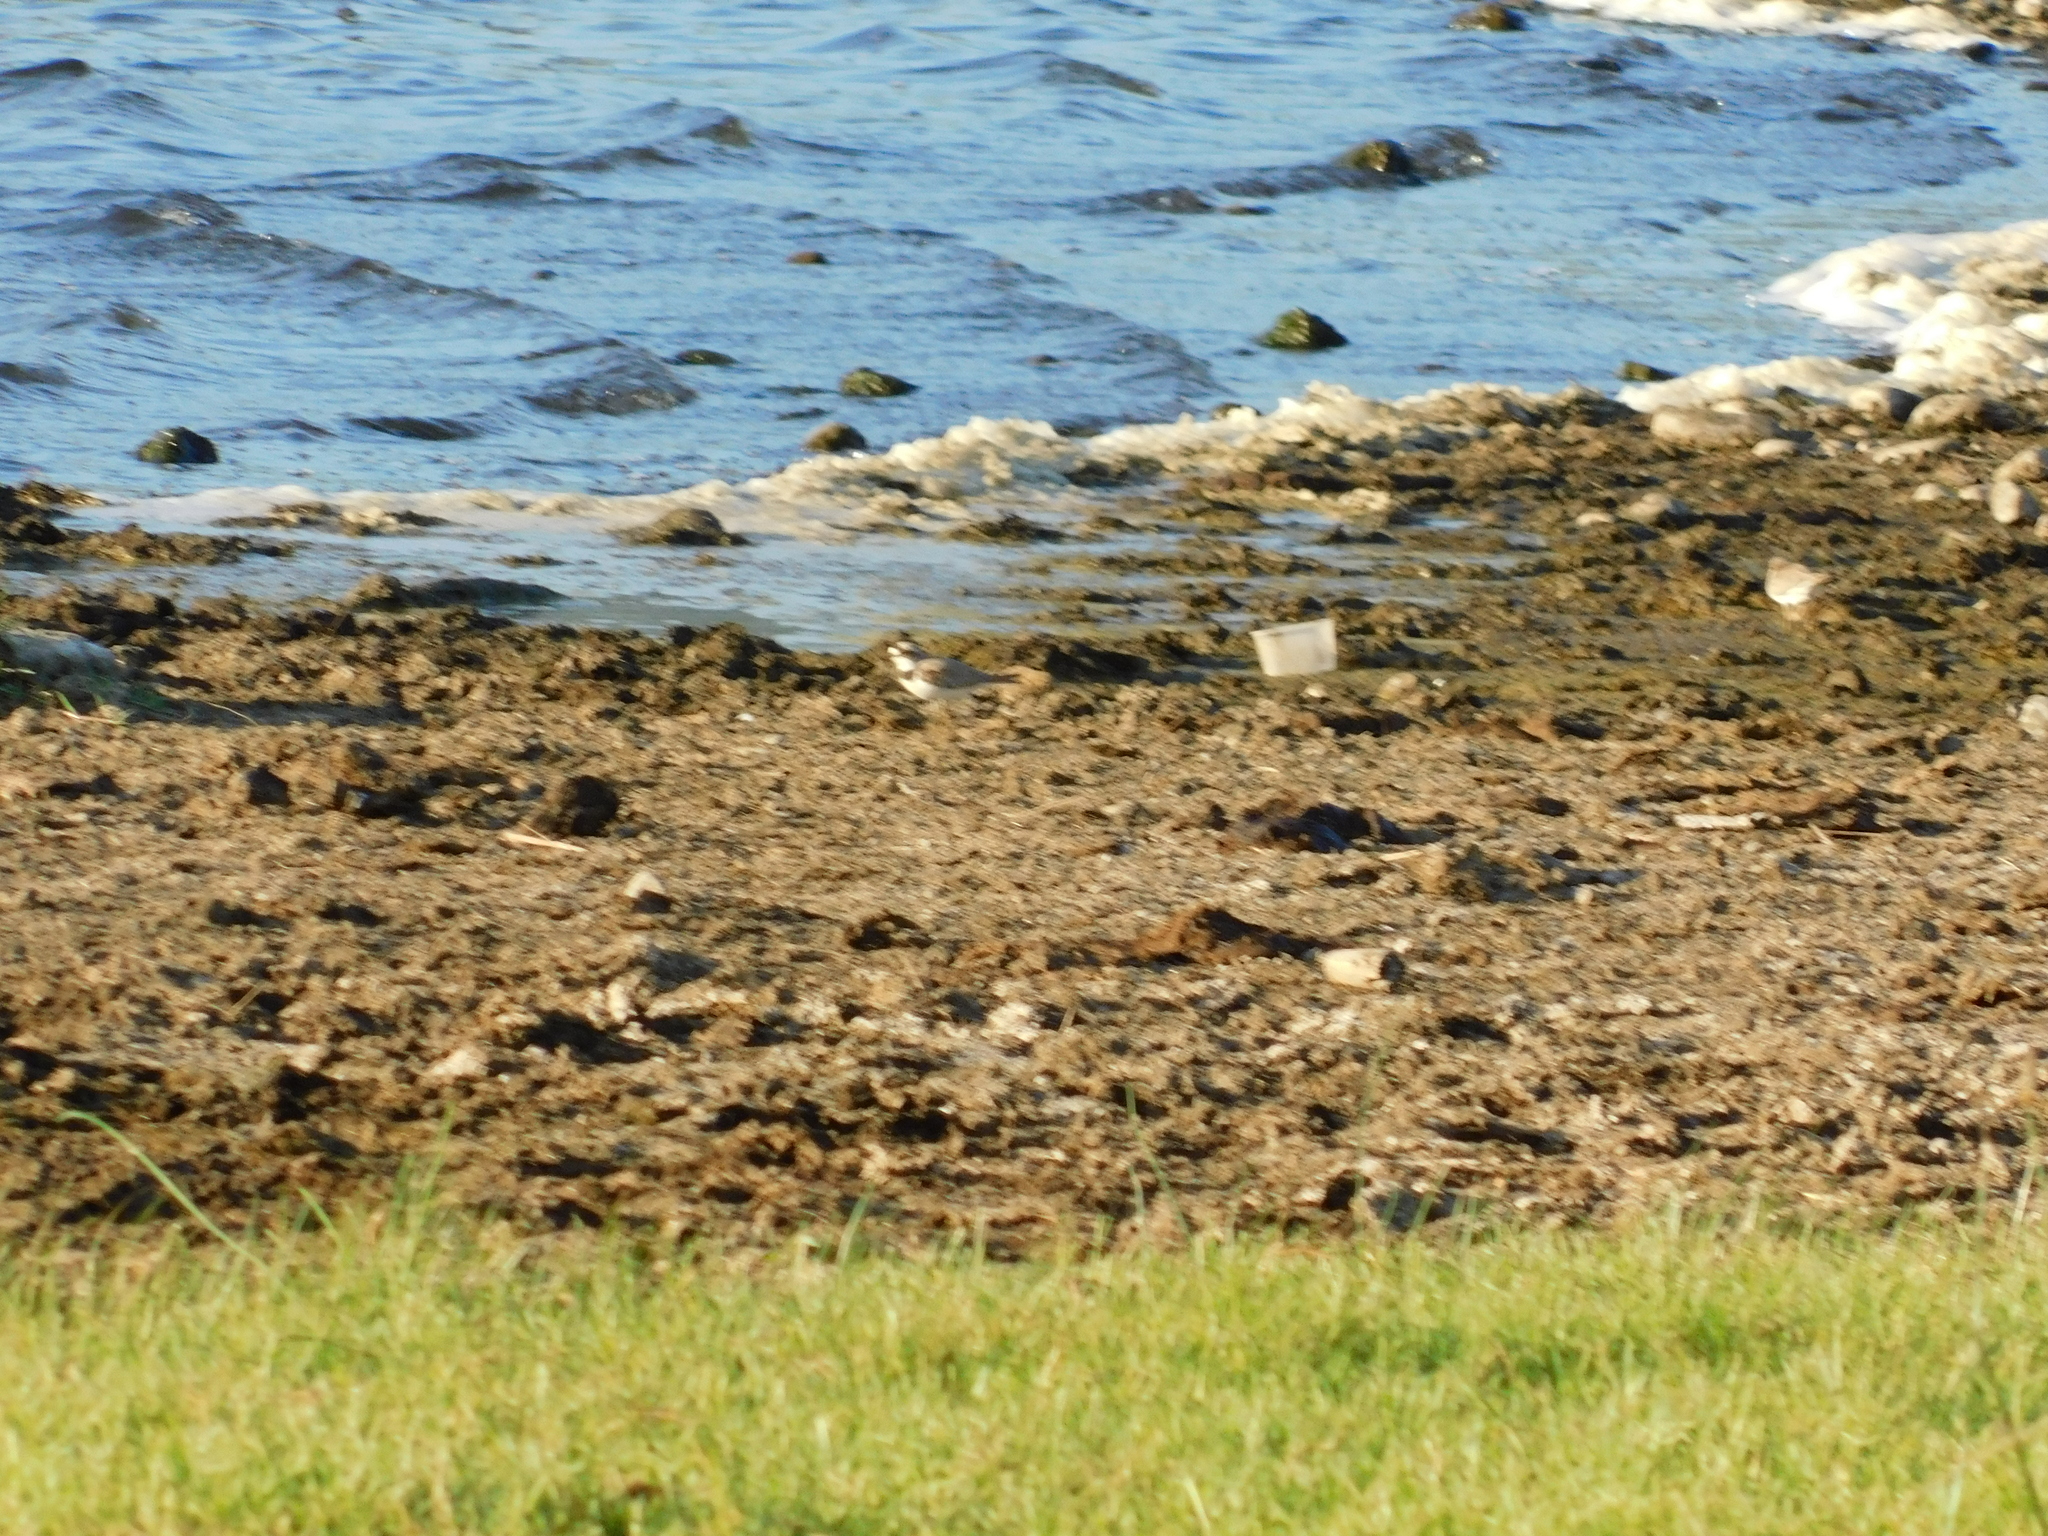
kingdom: Animalia
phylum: Chordata
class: Aves
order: Charadriiformes
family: Charadriidae
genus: Charadrius
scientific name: Charadrius dubius
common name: Little ringed plover
